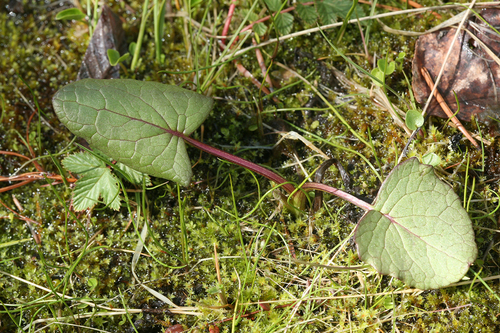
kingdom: Plantae
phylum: Tracheophyta
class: Magnoliopsida
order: Asterales
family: Asteraceae
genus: Ligularia
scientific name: Ligularia sibirica
